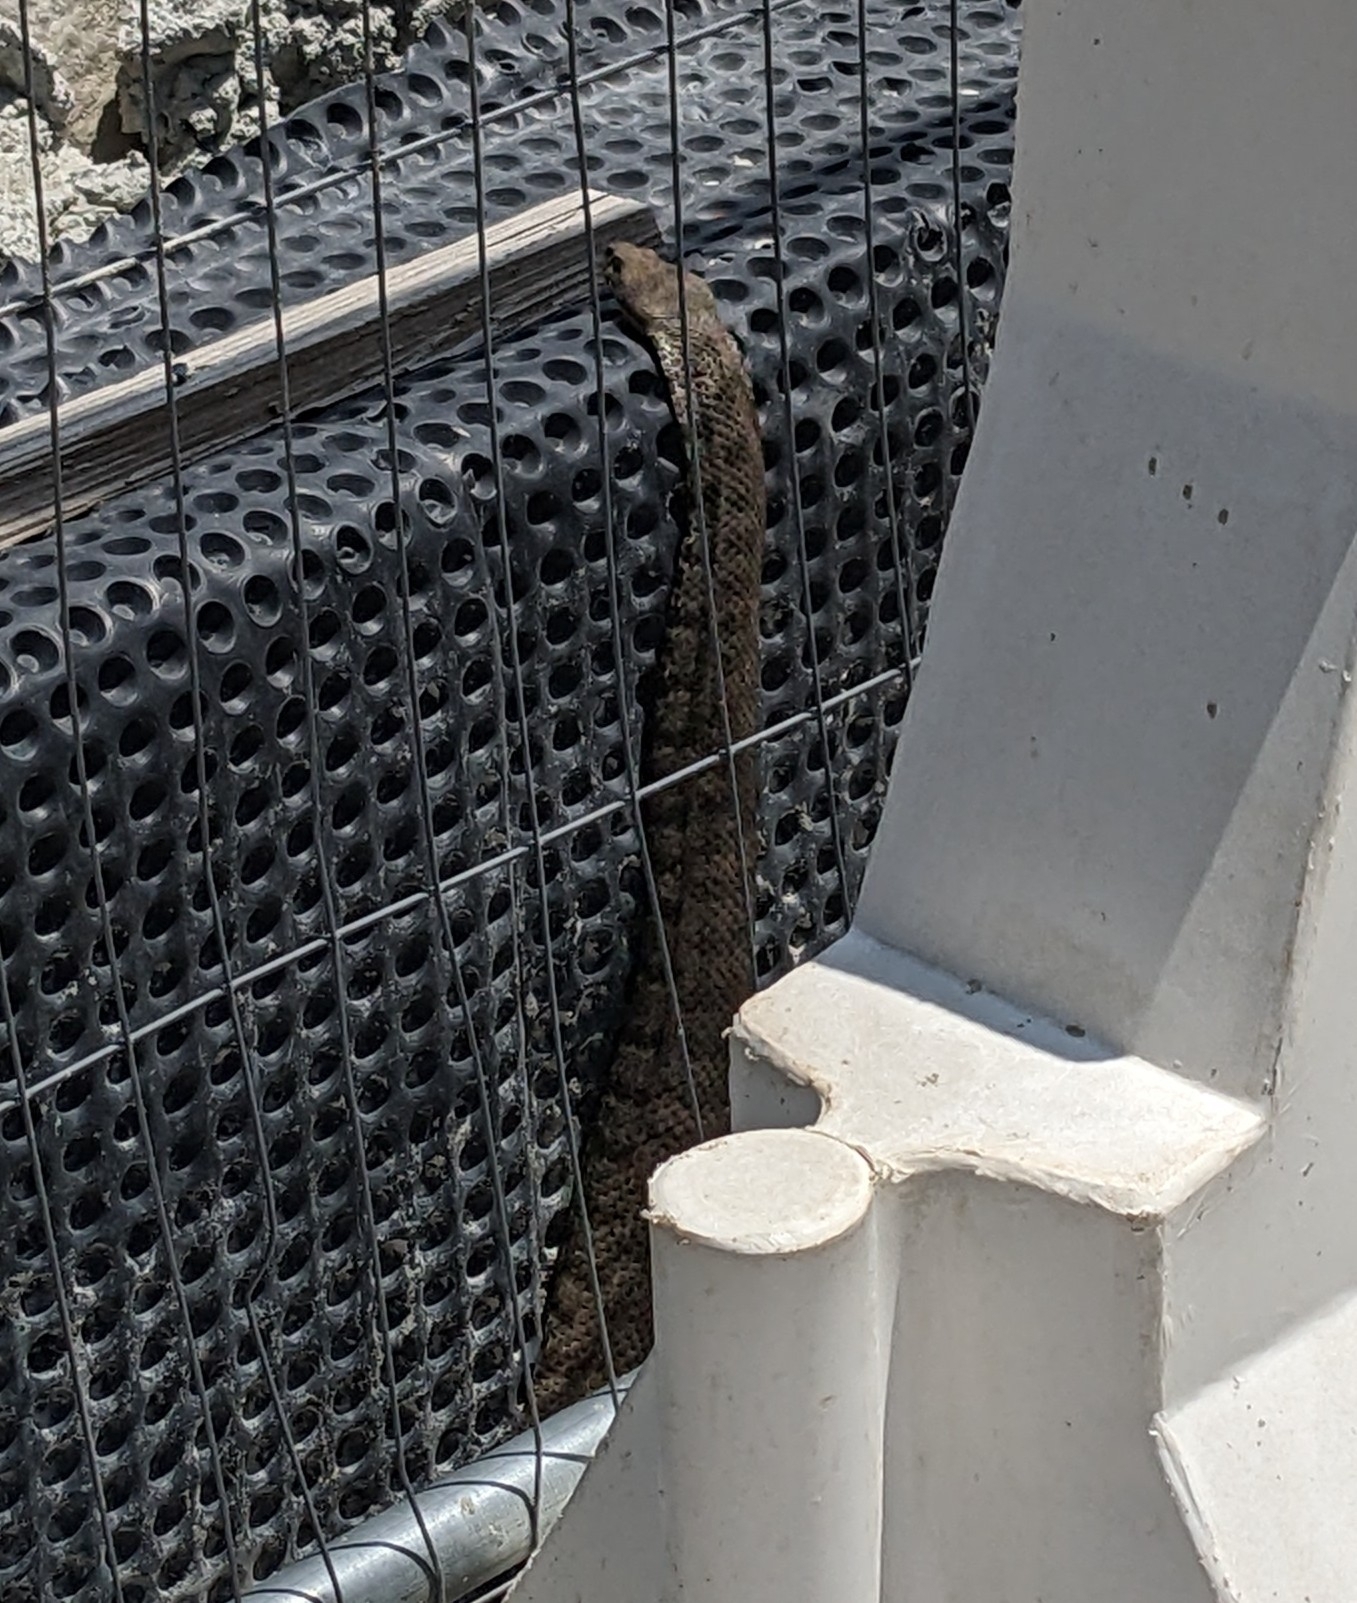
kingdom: Animalia
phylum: Chordata
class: Squamata
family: Viperidae
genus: Macrovipera
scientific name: Macrovipera lebetinus
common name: Levantine viper
